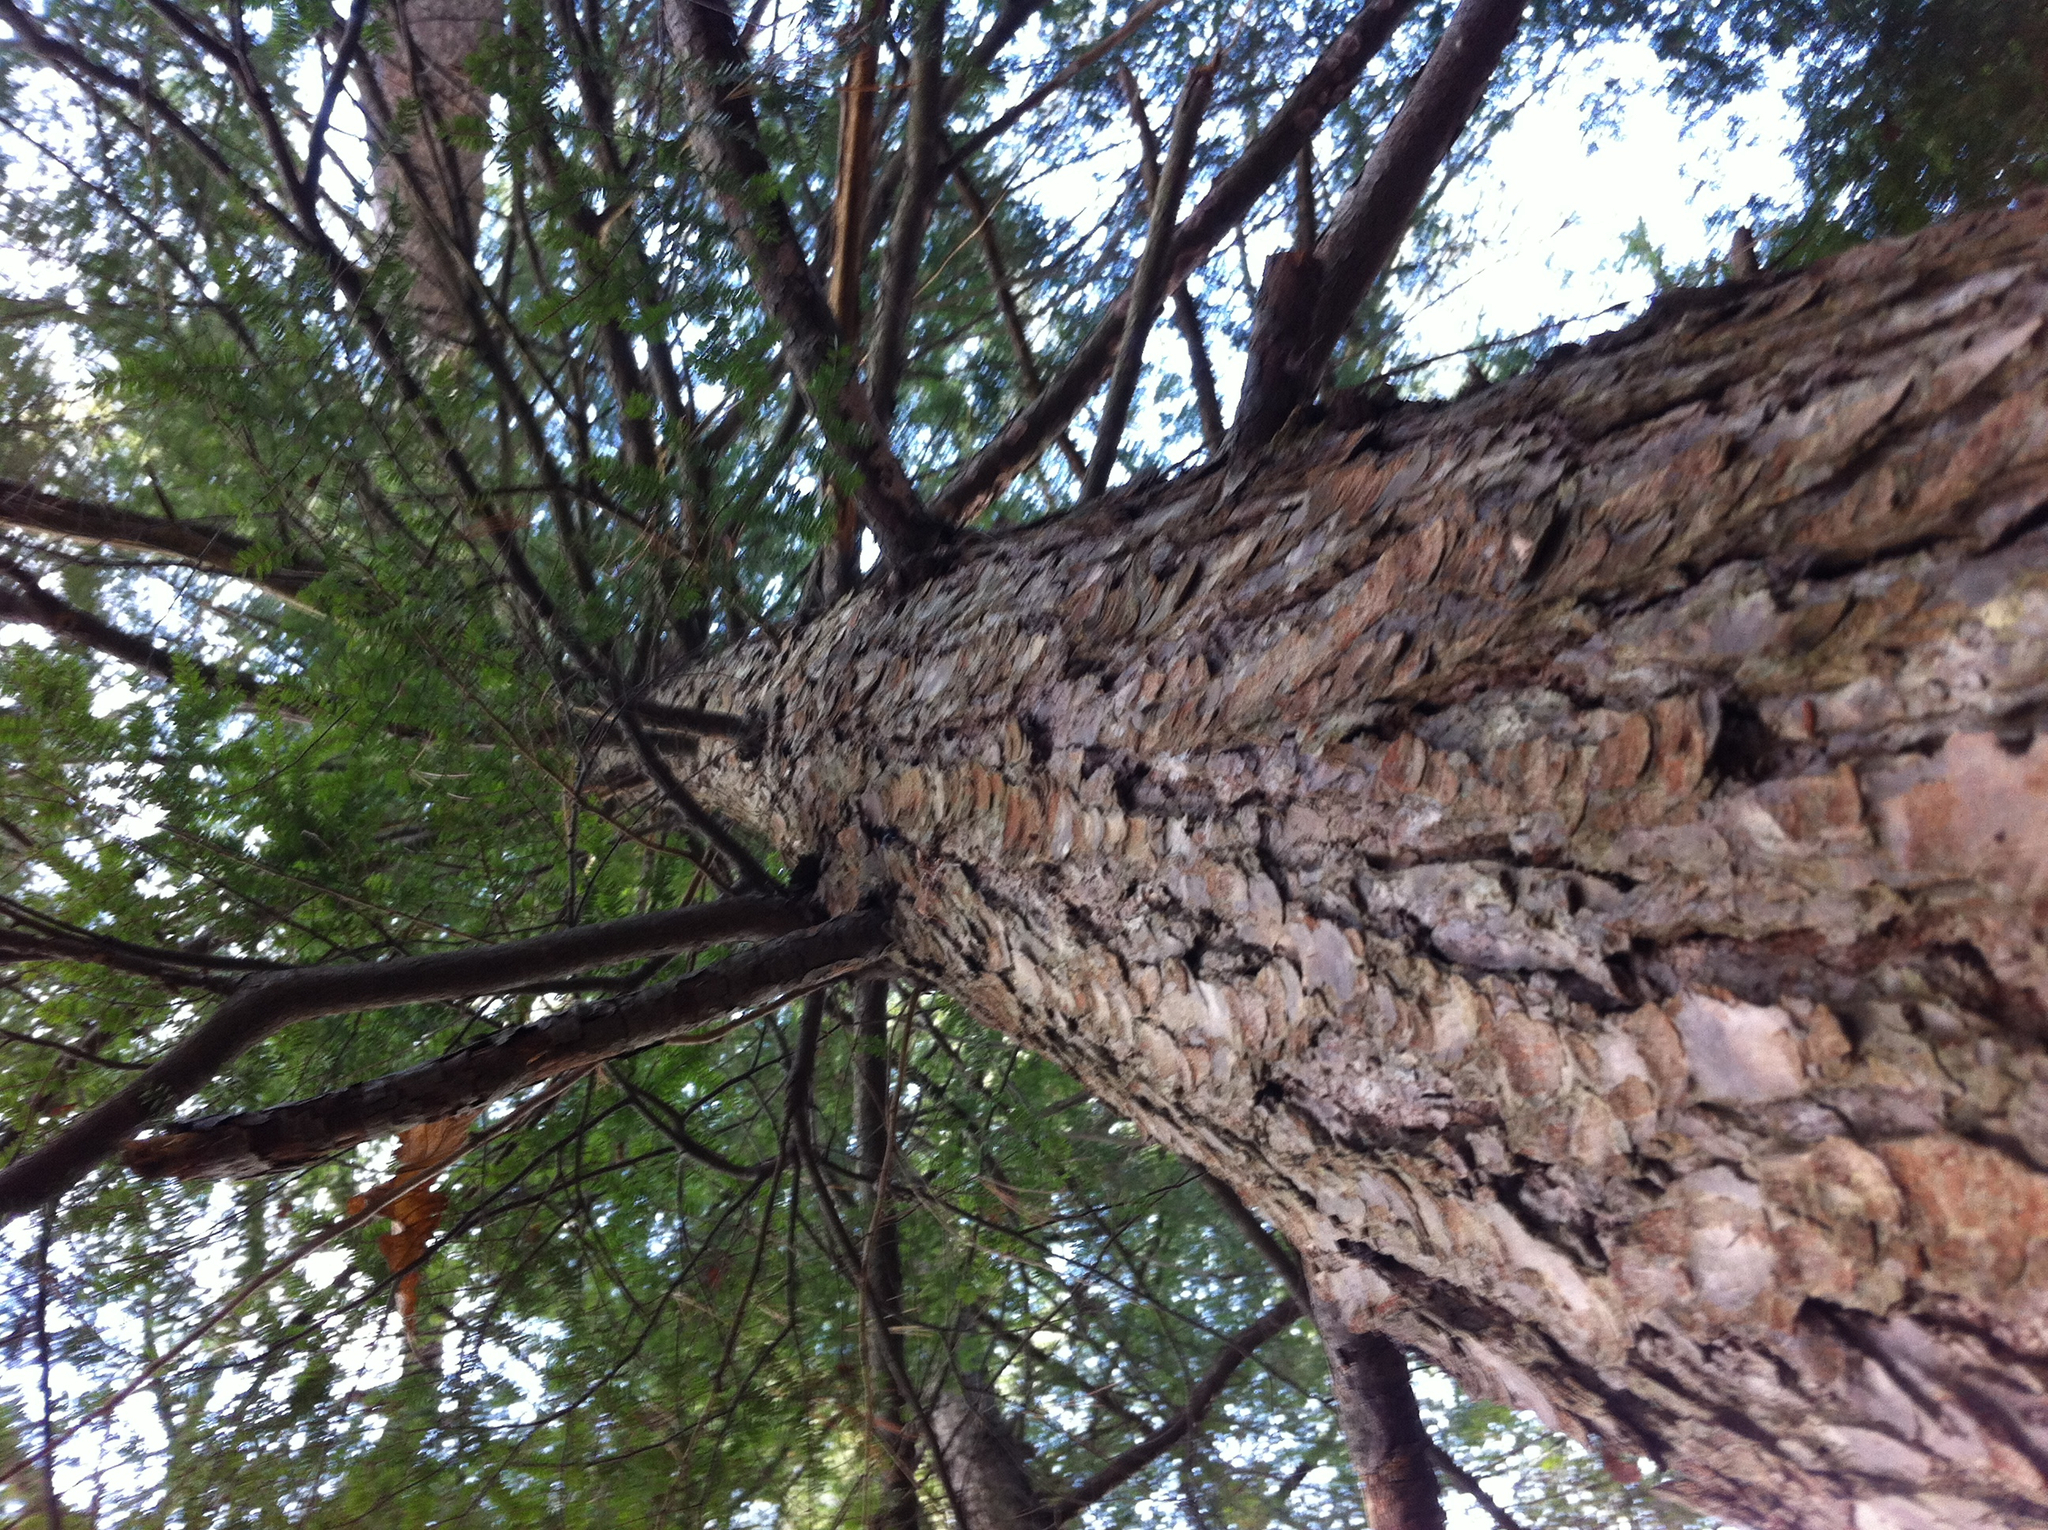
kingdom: Plantae
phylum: Tracheophyta
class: Pinopsida
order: Pinales
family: Pinaceae
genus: Tsuga
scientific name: Tsuga canadensis
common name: Eastern hemlock
